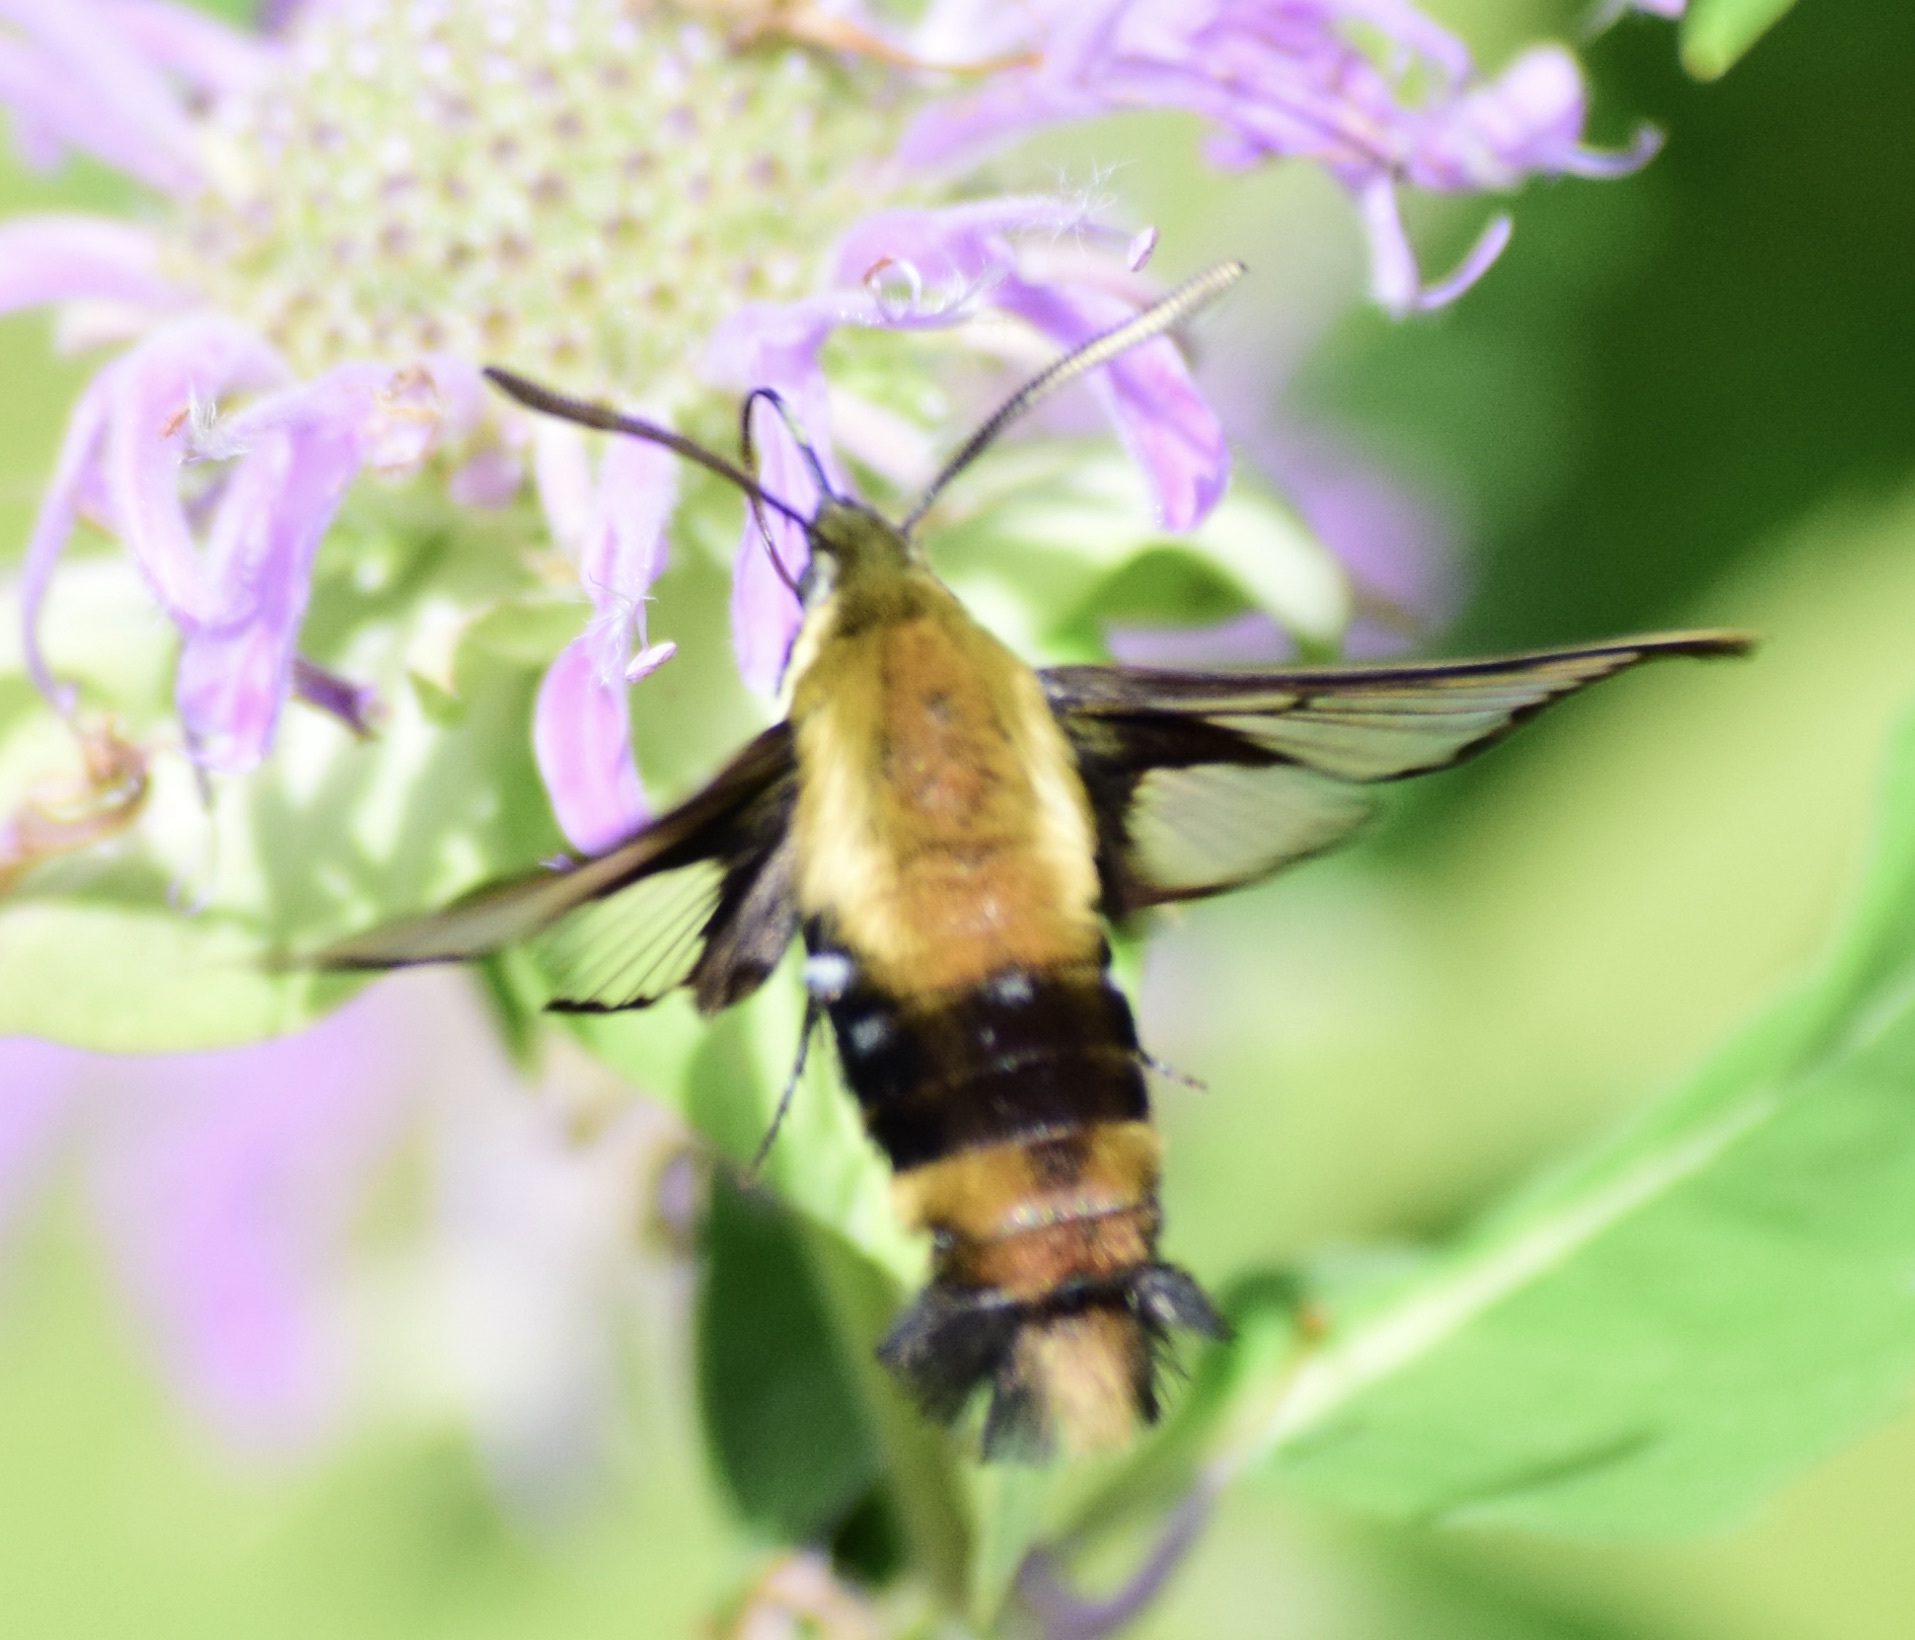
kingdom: Animalia
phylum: Arthropoda
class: Insecta
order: Lepidoptera
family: Sphingidae
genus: Hemaris
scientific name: Hemaris diffinis
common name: Bumblebee moth
